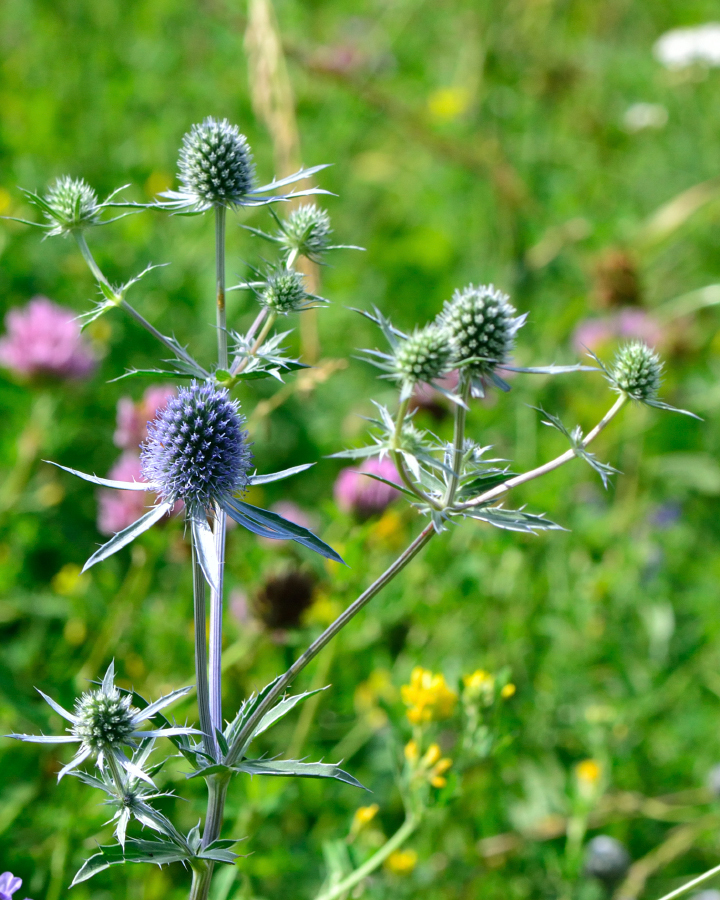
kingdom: Plantae
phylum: Tracheophyta
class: Magnoliopsida
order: Apiales
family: Apiaceae
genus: Eryngium
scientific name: Eryngium planum
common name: Blue eryngo
